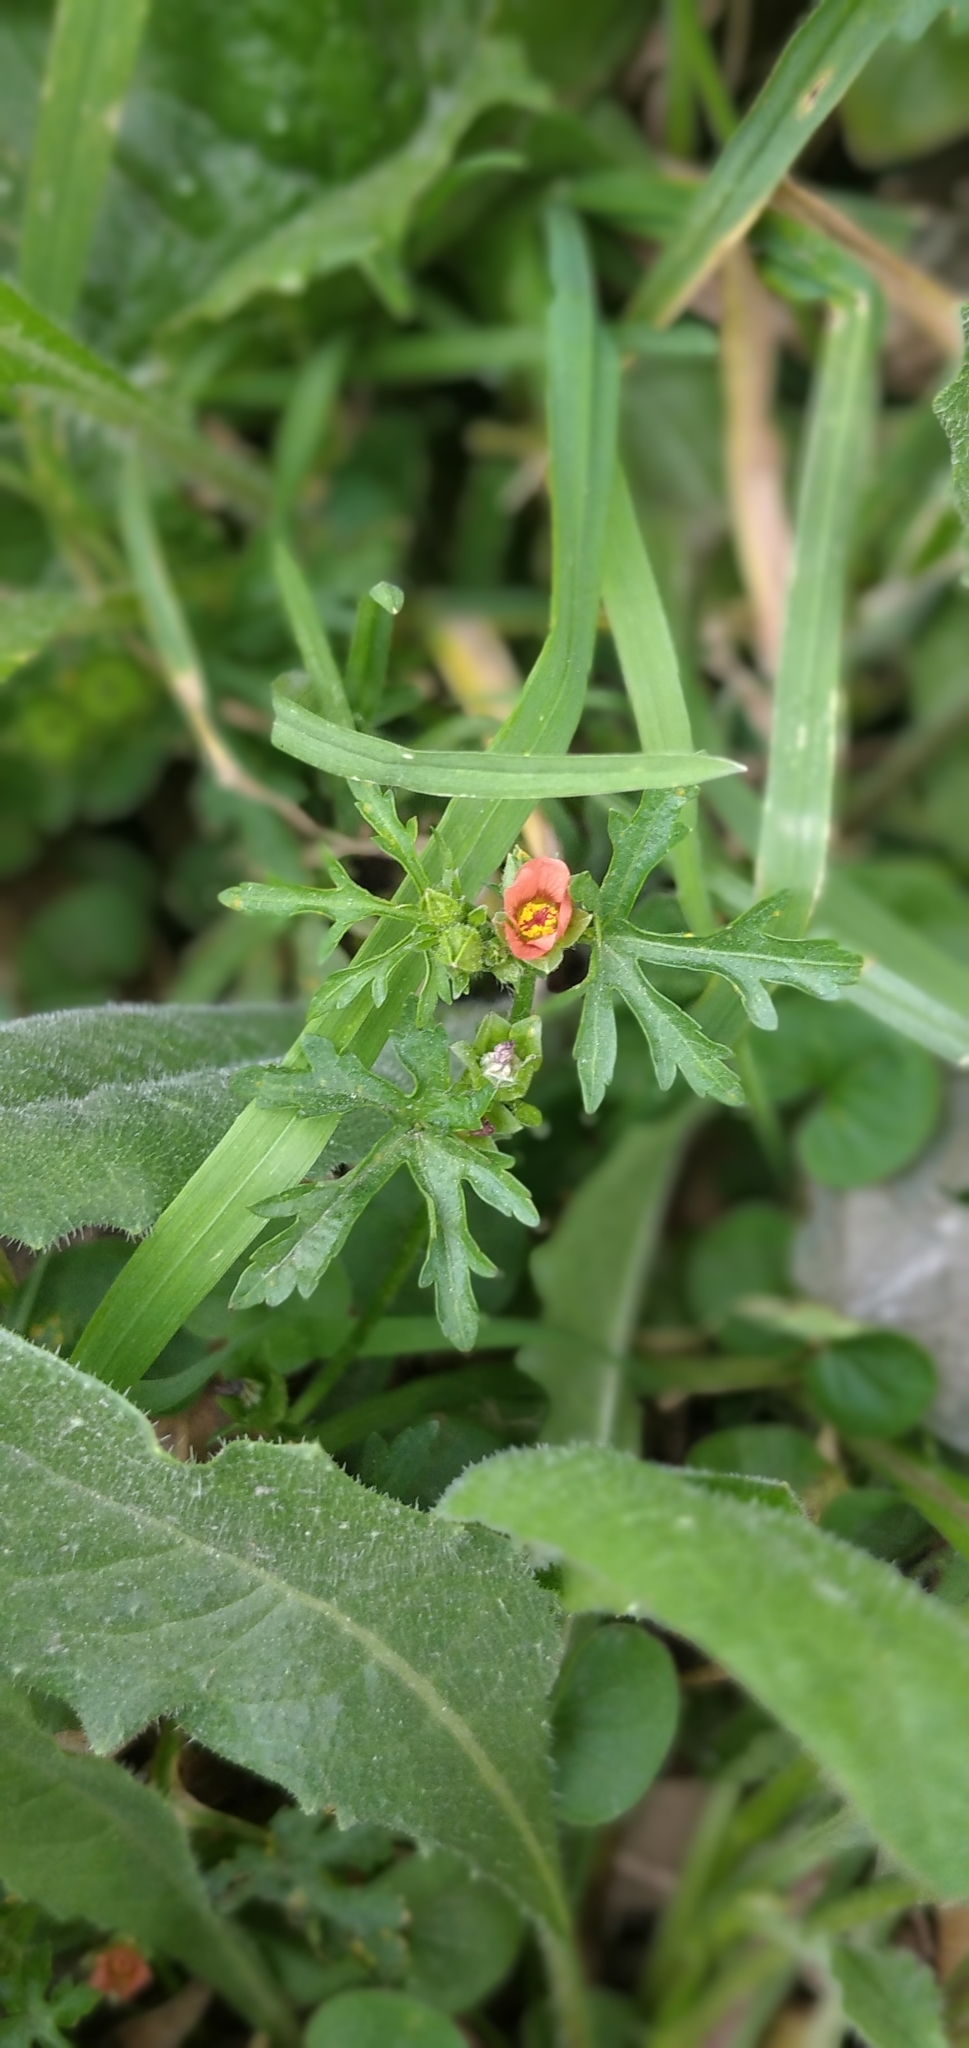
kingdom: Plantae
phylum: Tracheophyta
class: Magnoliopsida
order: Malvales
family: Malvaceae
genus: Modiola
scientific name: Modiola caroliniana
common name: Carolina bristlemallow
